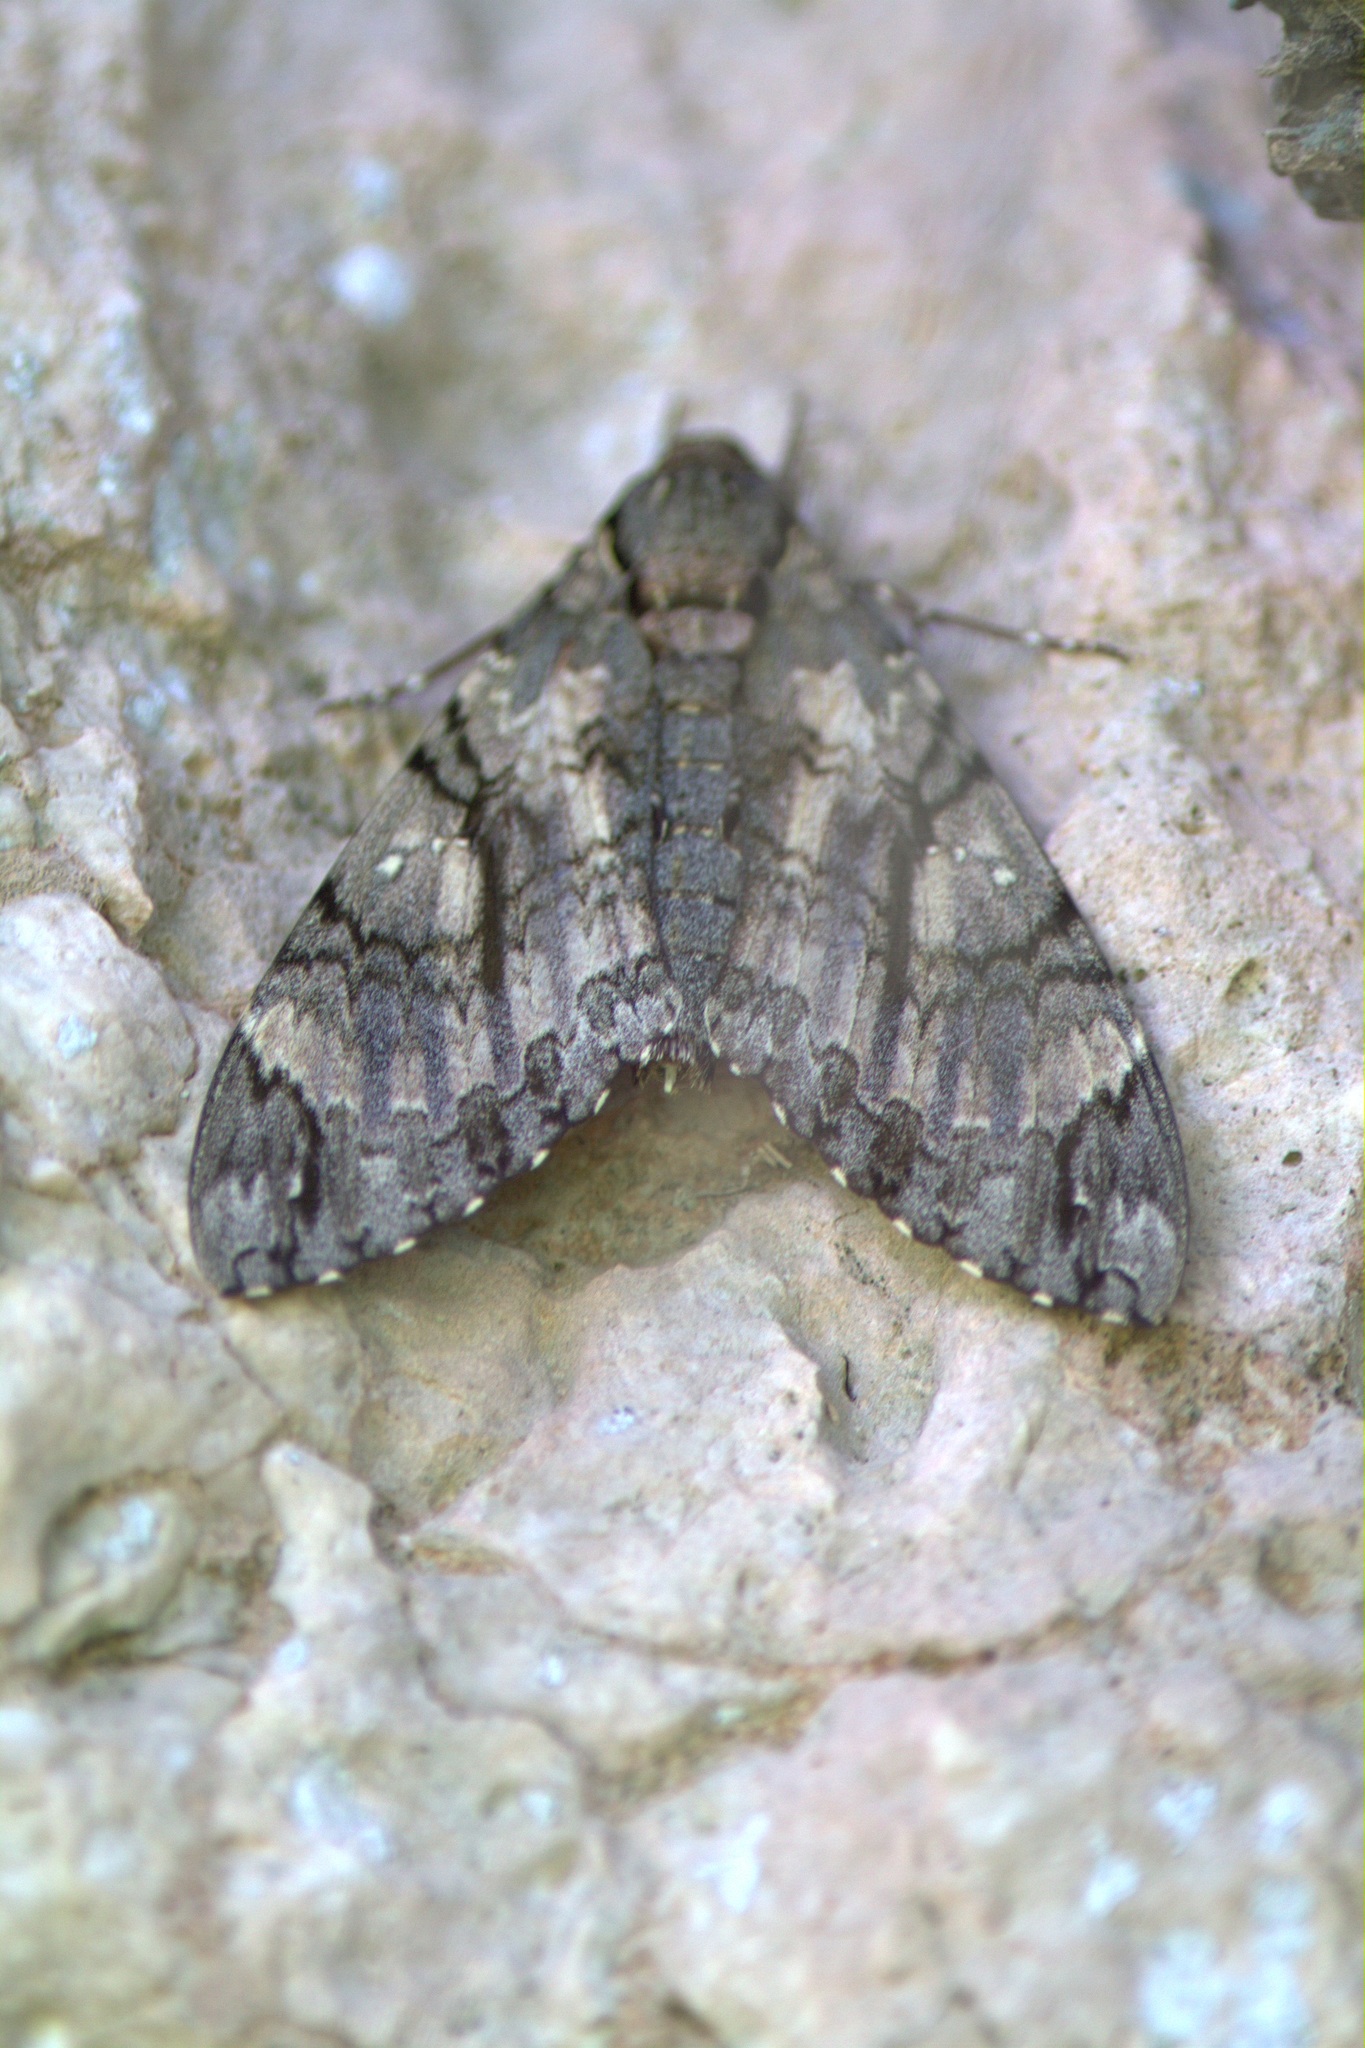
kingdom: Animalia
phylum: Arthropoda
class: Insecta
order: Lepidoptera
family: Sphingidae
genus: Cocytius
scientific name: Cocytius antaeus
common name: Giant sphinx
